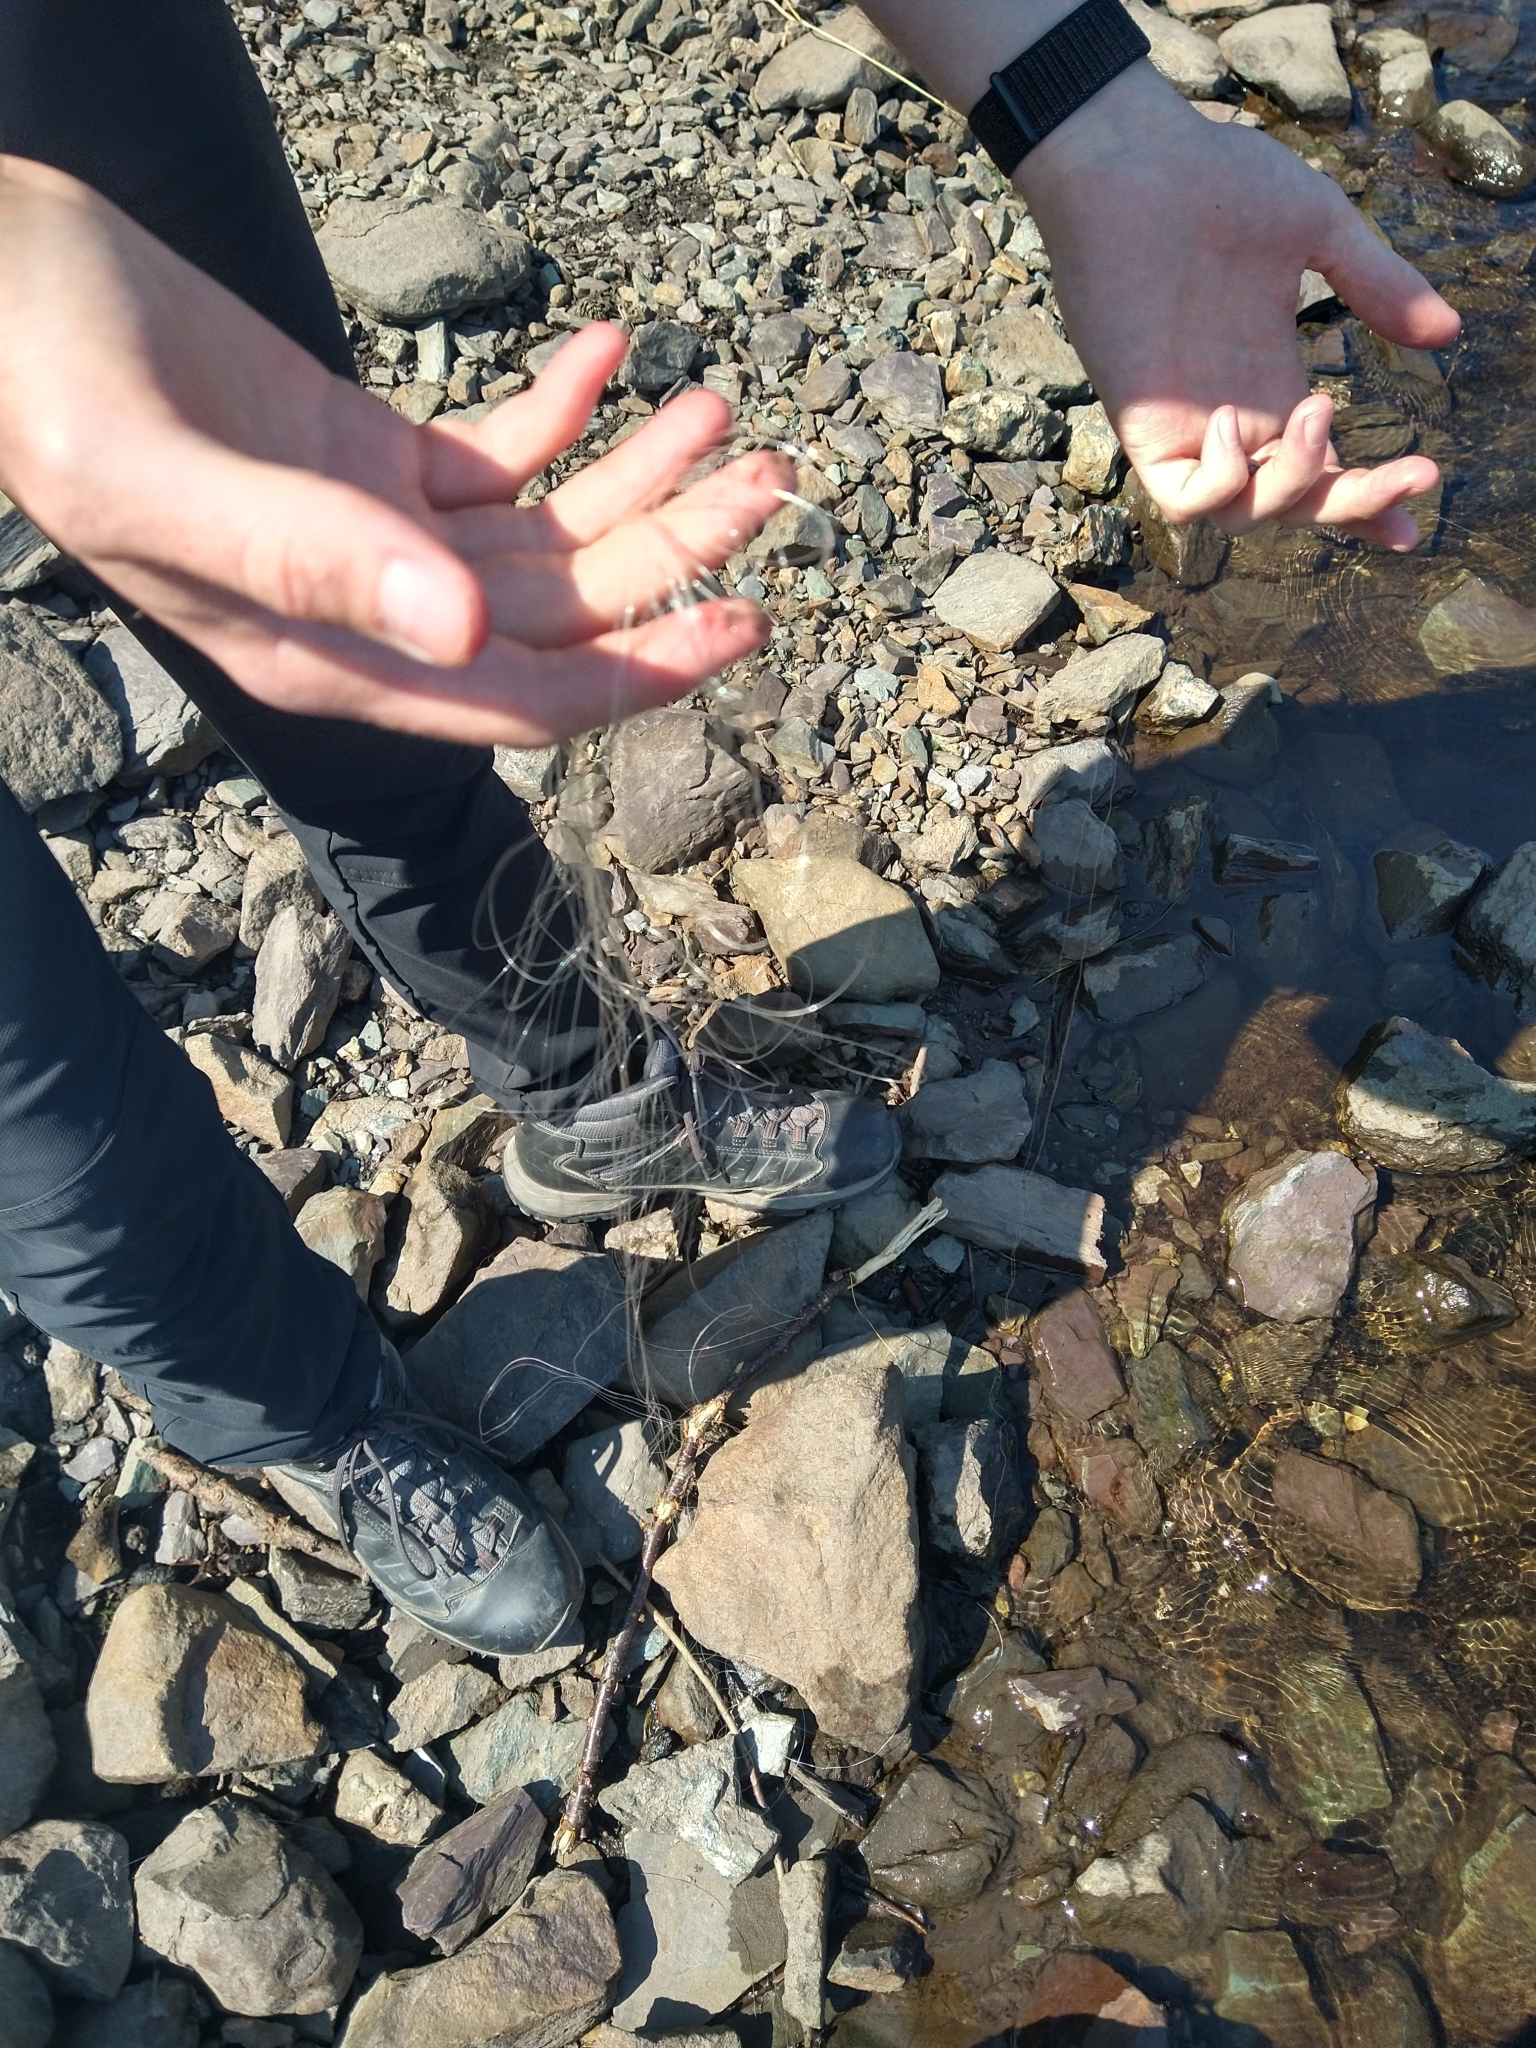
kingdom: Animalia
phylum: Chordata
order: Salmoniformes
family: Salmonidae
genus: Salmo
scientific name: Salmo trutta
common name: Brown trout
